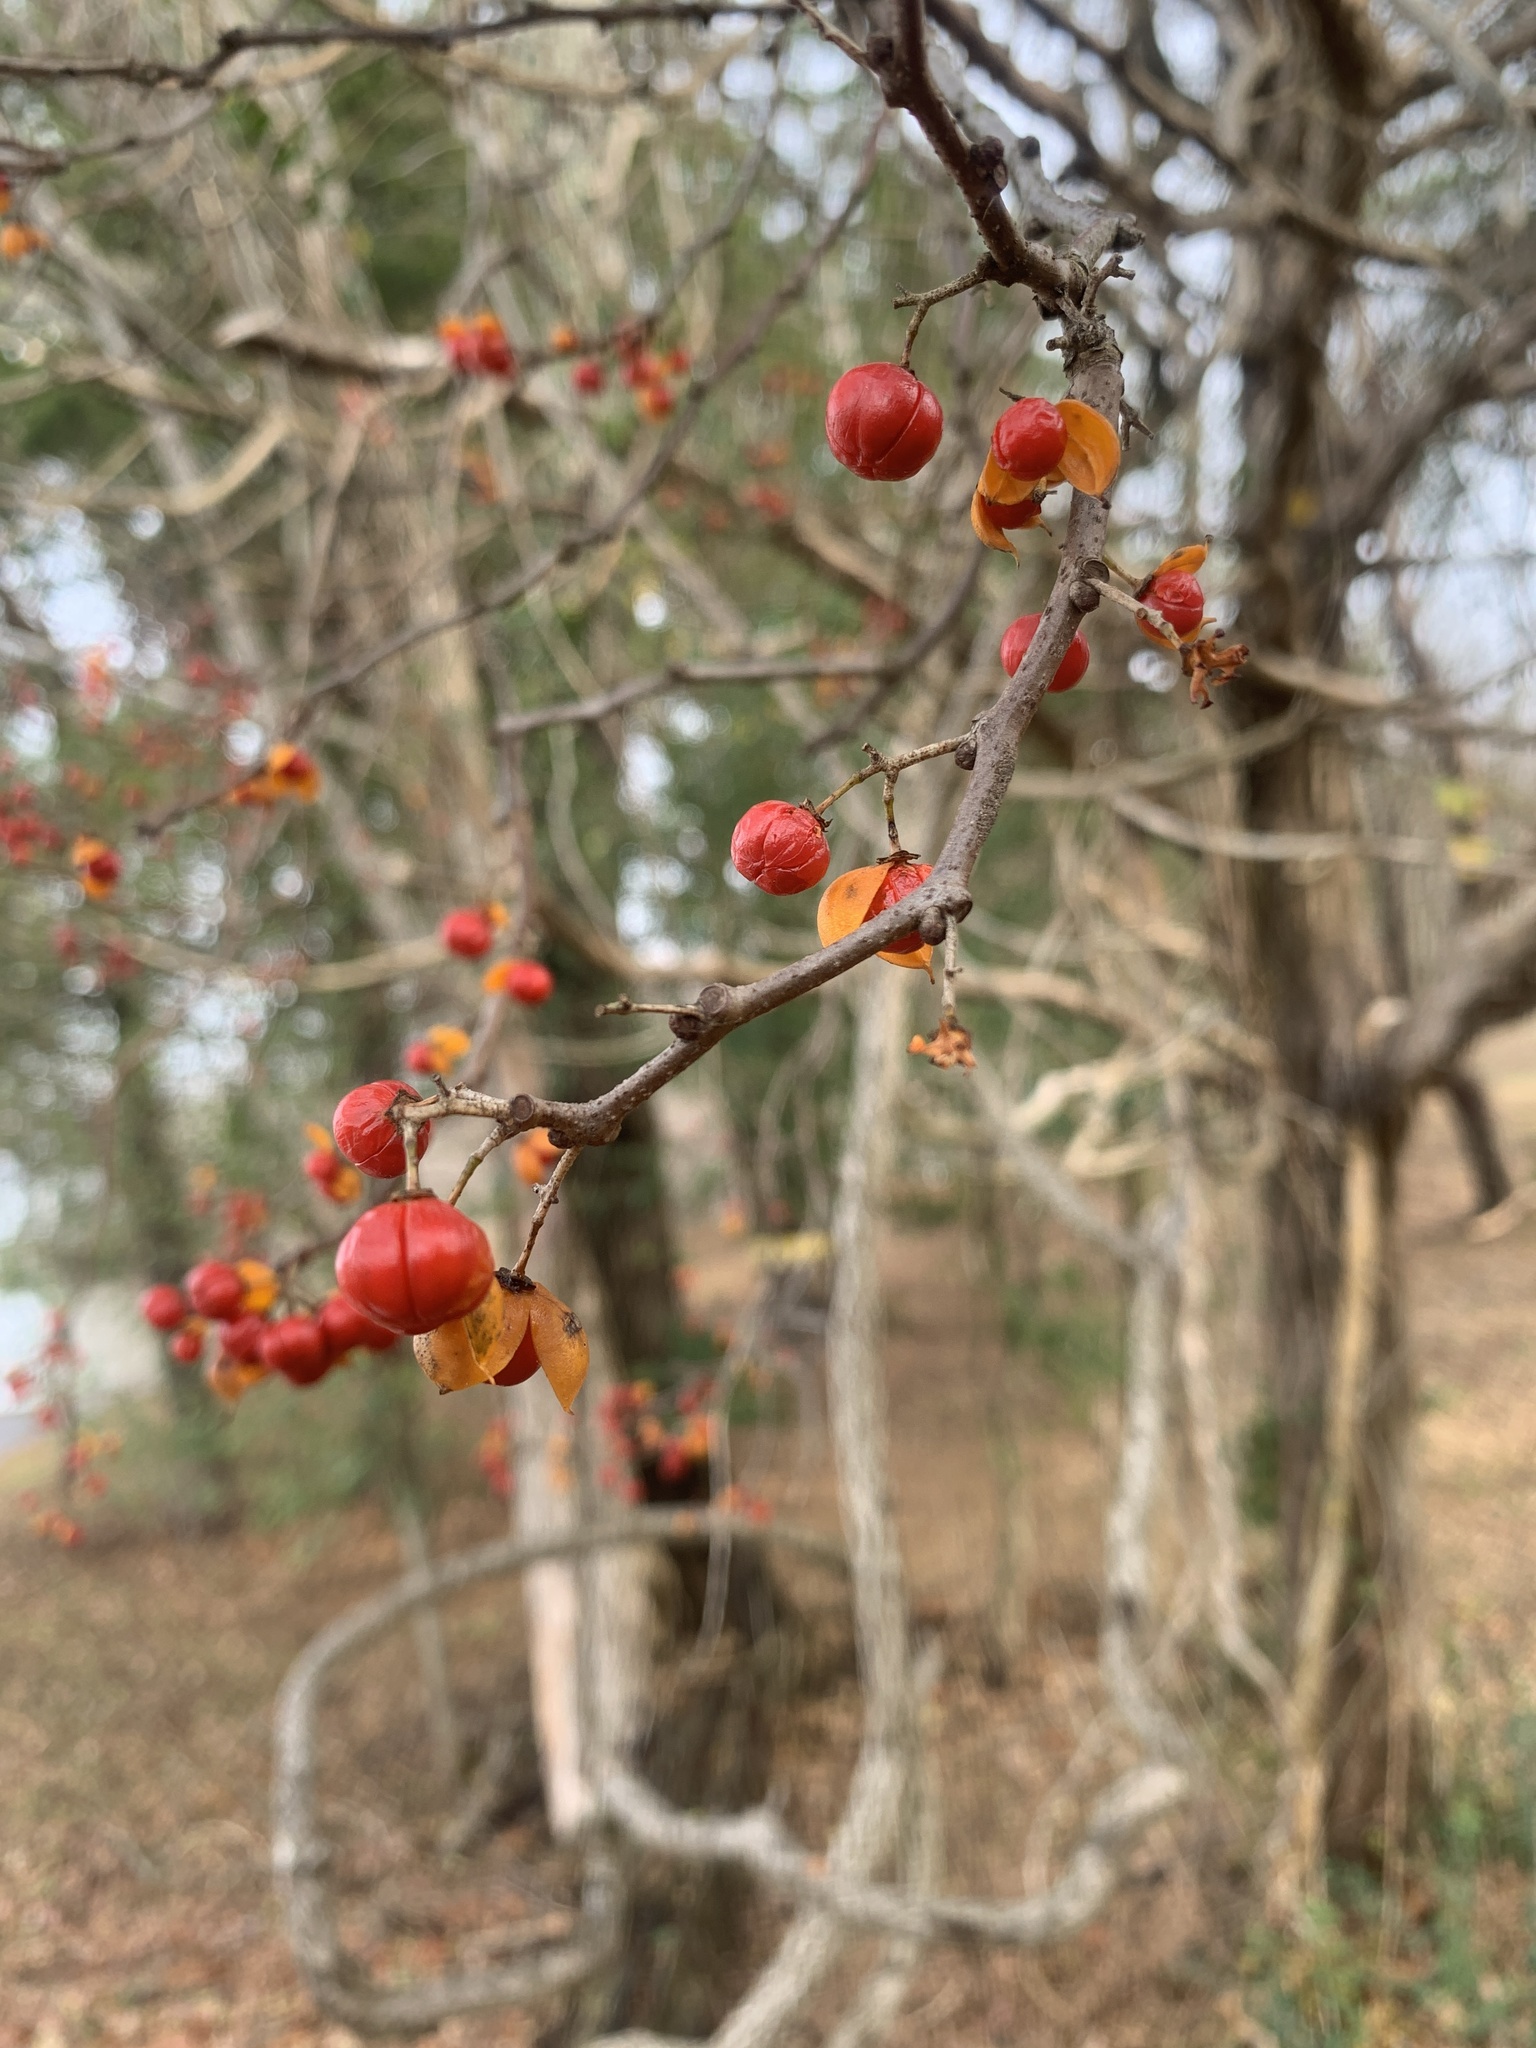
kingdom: Plantae
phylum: Tracheophyta
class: Magnoliopsida
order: Celastrales
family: Celastraceae
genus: Celastrus
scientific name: Celastrus orbiculatus
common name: Oriental bittersweet
